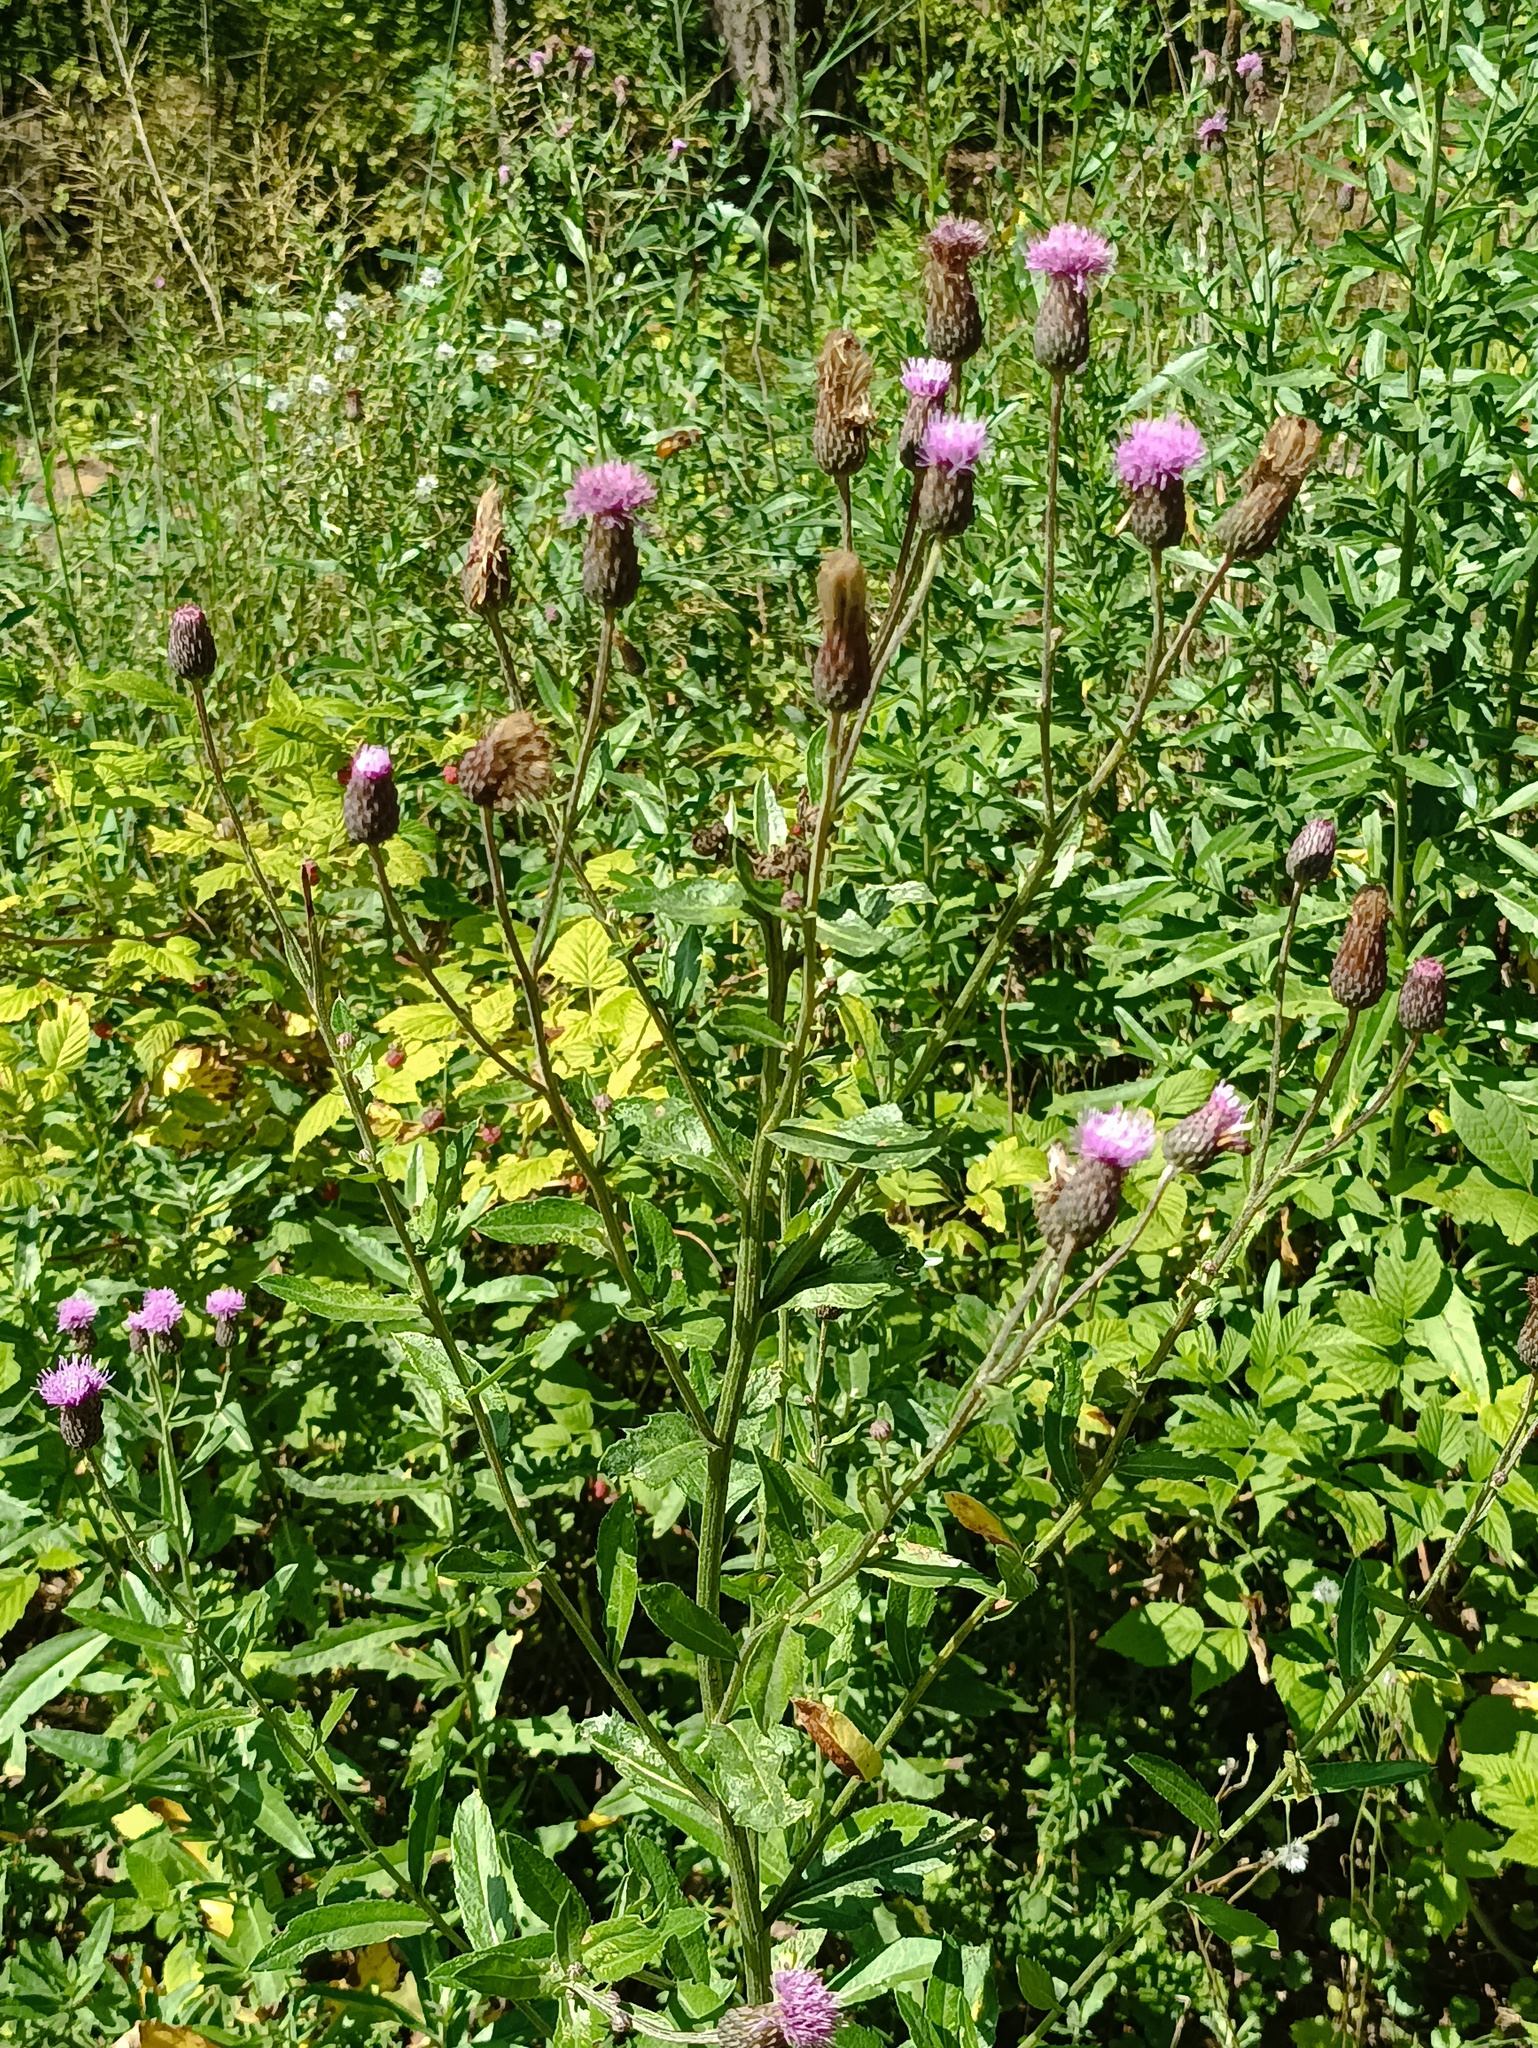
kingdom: Plantae
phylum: Tracheophyta
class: Magnoliopsida
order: Asterales
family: Asteraceae
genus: Cirsium
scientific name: Cirsium arvense
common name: Creeping thistle
